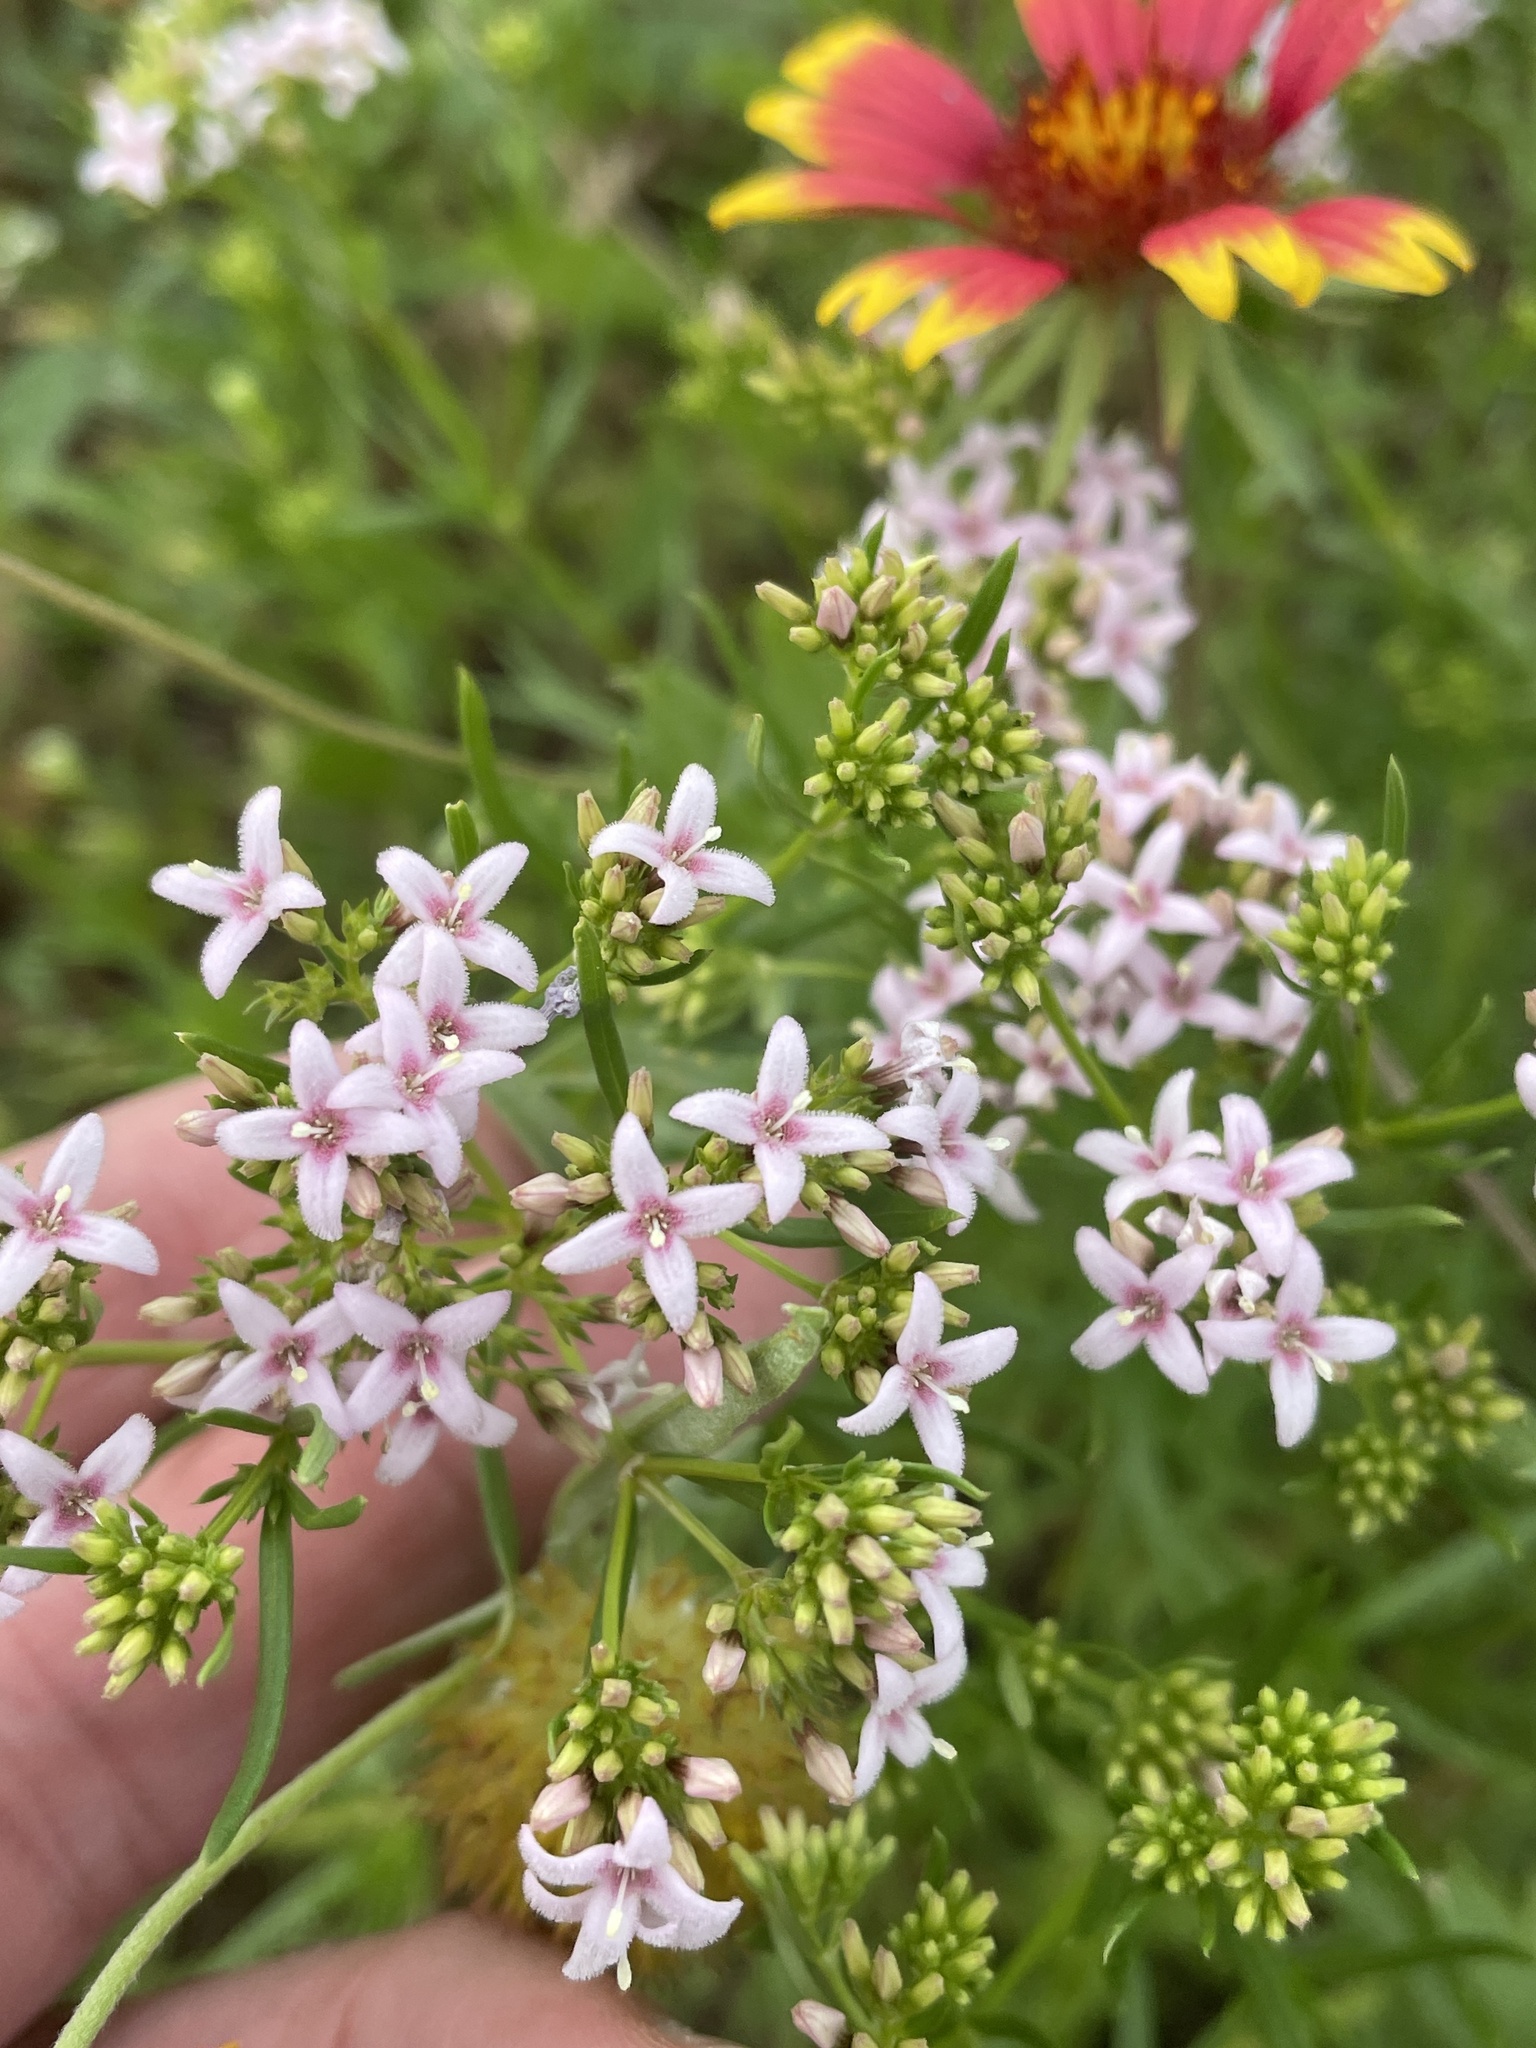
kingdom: Plantae
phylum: Tracheophyta
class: Magnoliopsida
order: Gentianales
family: Rubiaceae
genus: Stenaria
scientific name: Stenaria nigricans
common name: Diamondflowers
